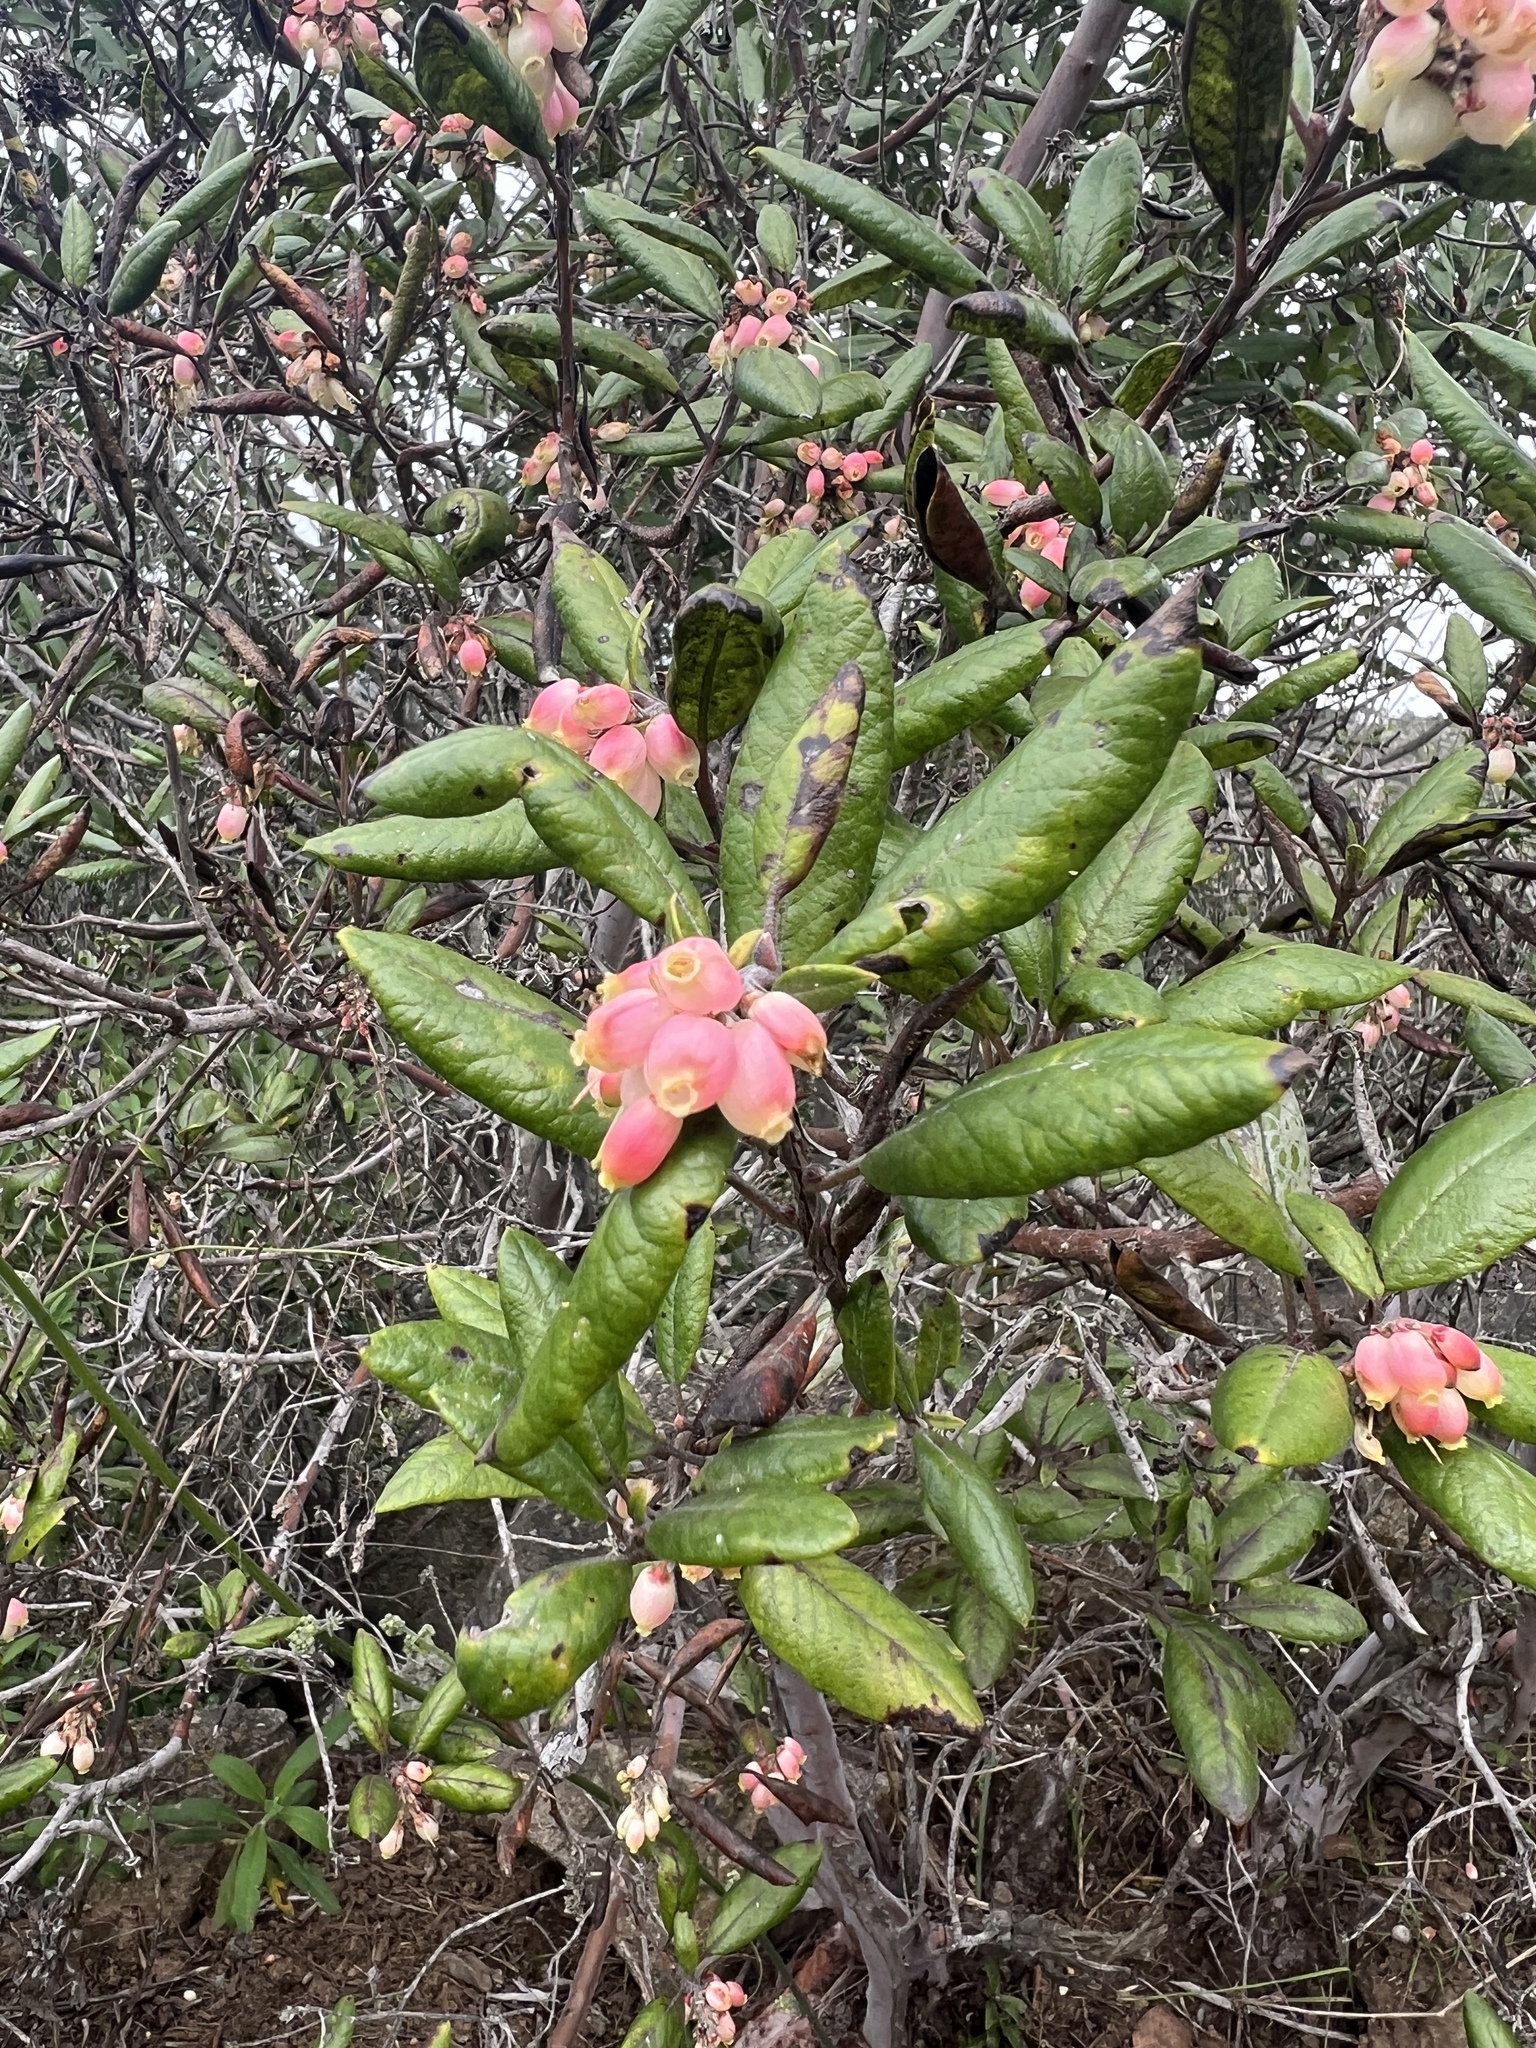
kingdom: Plantae
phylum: Tracheophyta
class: Magnoliopsida
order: Ericales
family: Ericaceae
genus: Arctostaphylos
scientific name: Arctostaphylos bicolor
